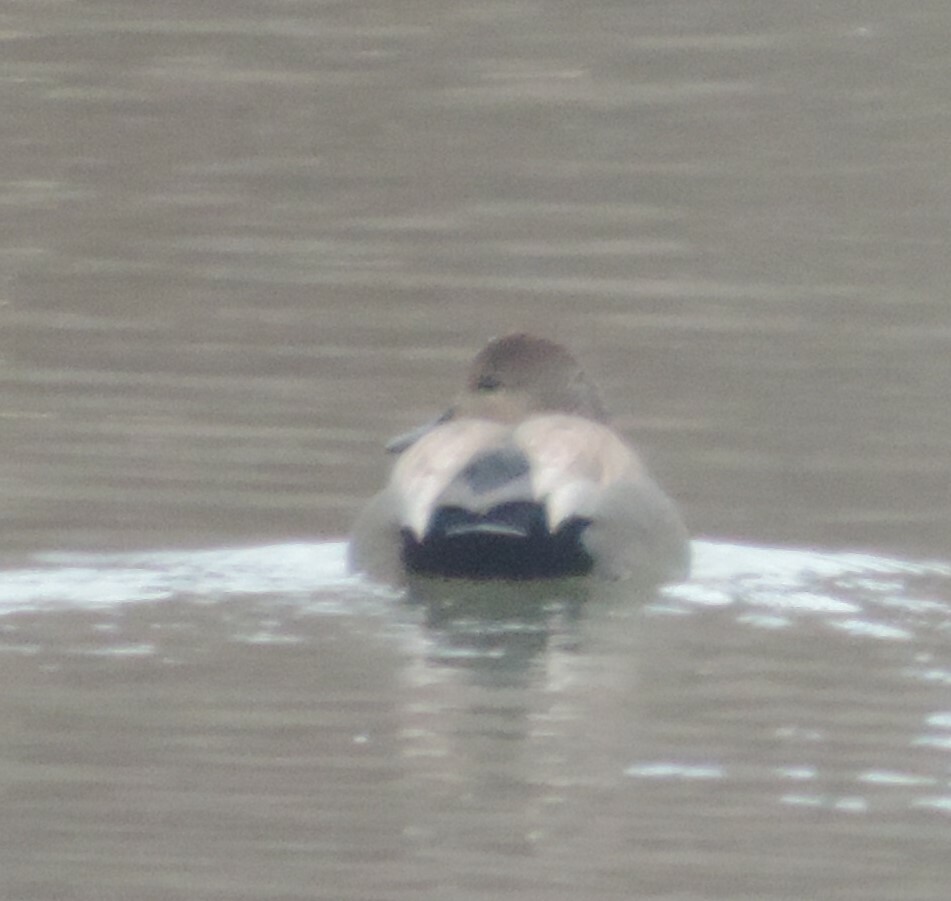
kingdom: Animalia
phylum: Chordata
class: Aves
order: Anseriformes
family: Anatidae
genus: Mareca
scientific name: Mareca strepera
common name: Gadwall
